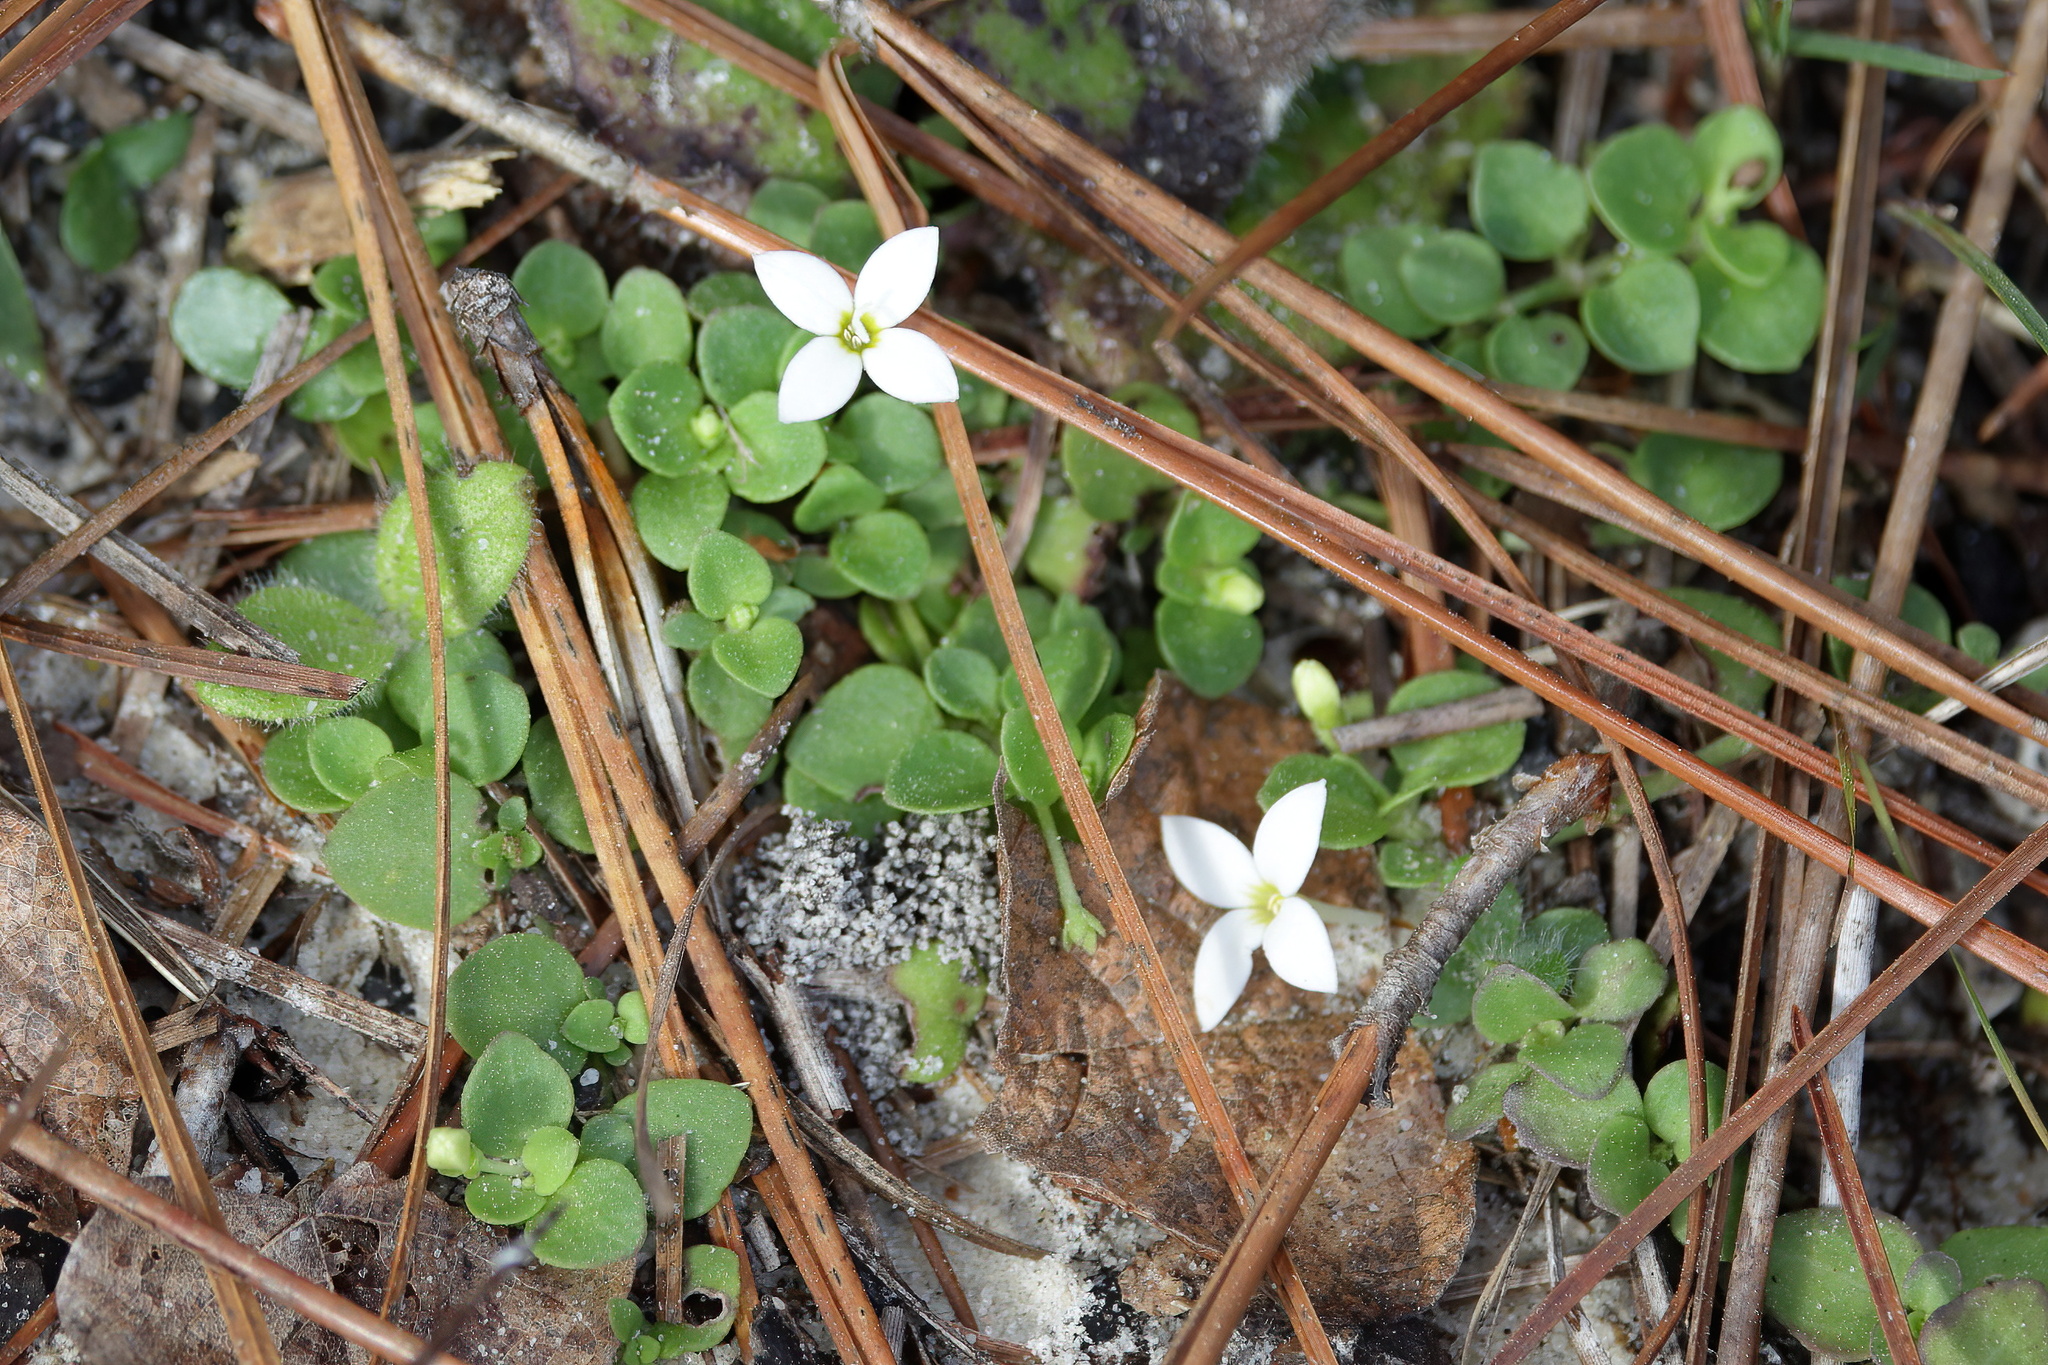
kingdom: Plantae
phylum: Tracheophyta
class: Magnoliopsida
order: Gentianales
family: Rubiaceae
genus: Houstonia
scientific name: Houstonia procumbens
